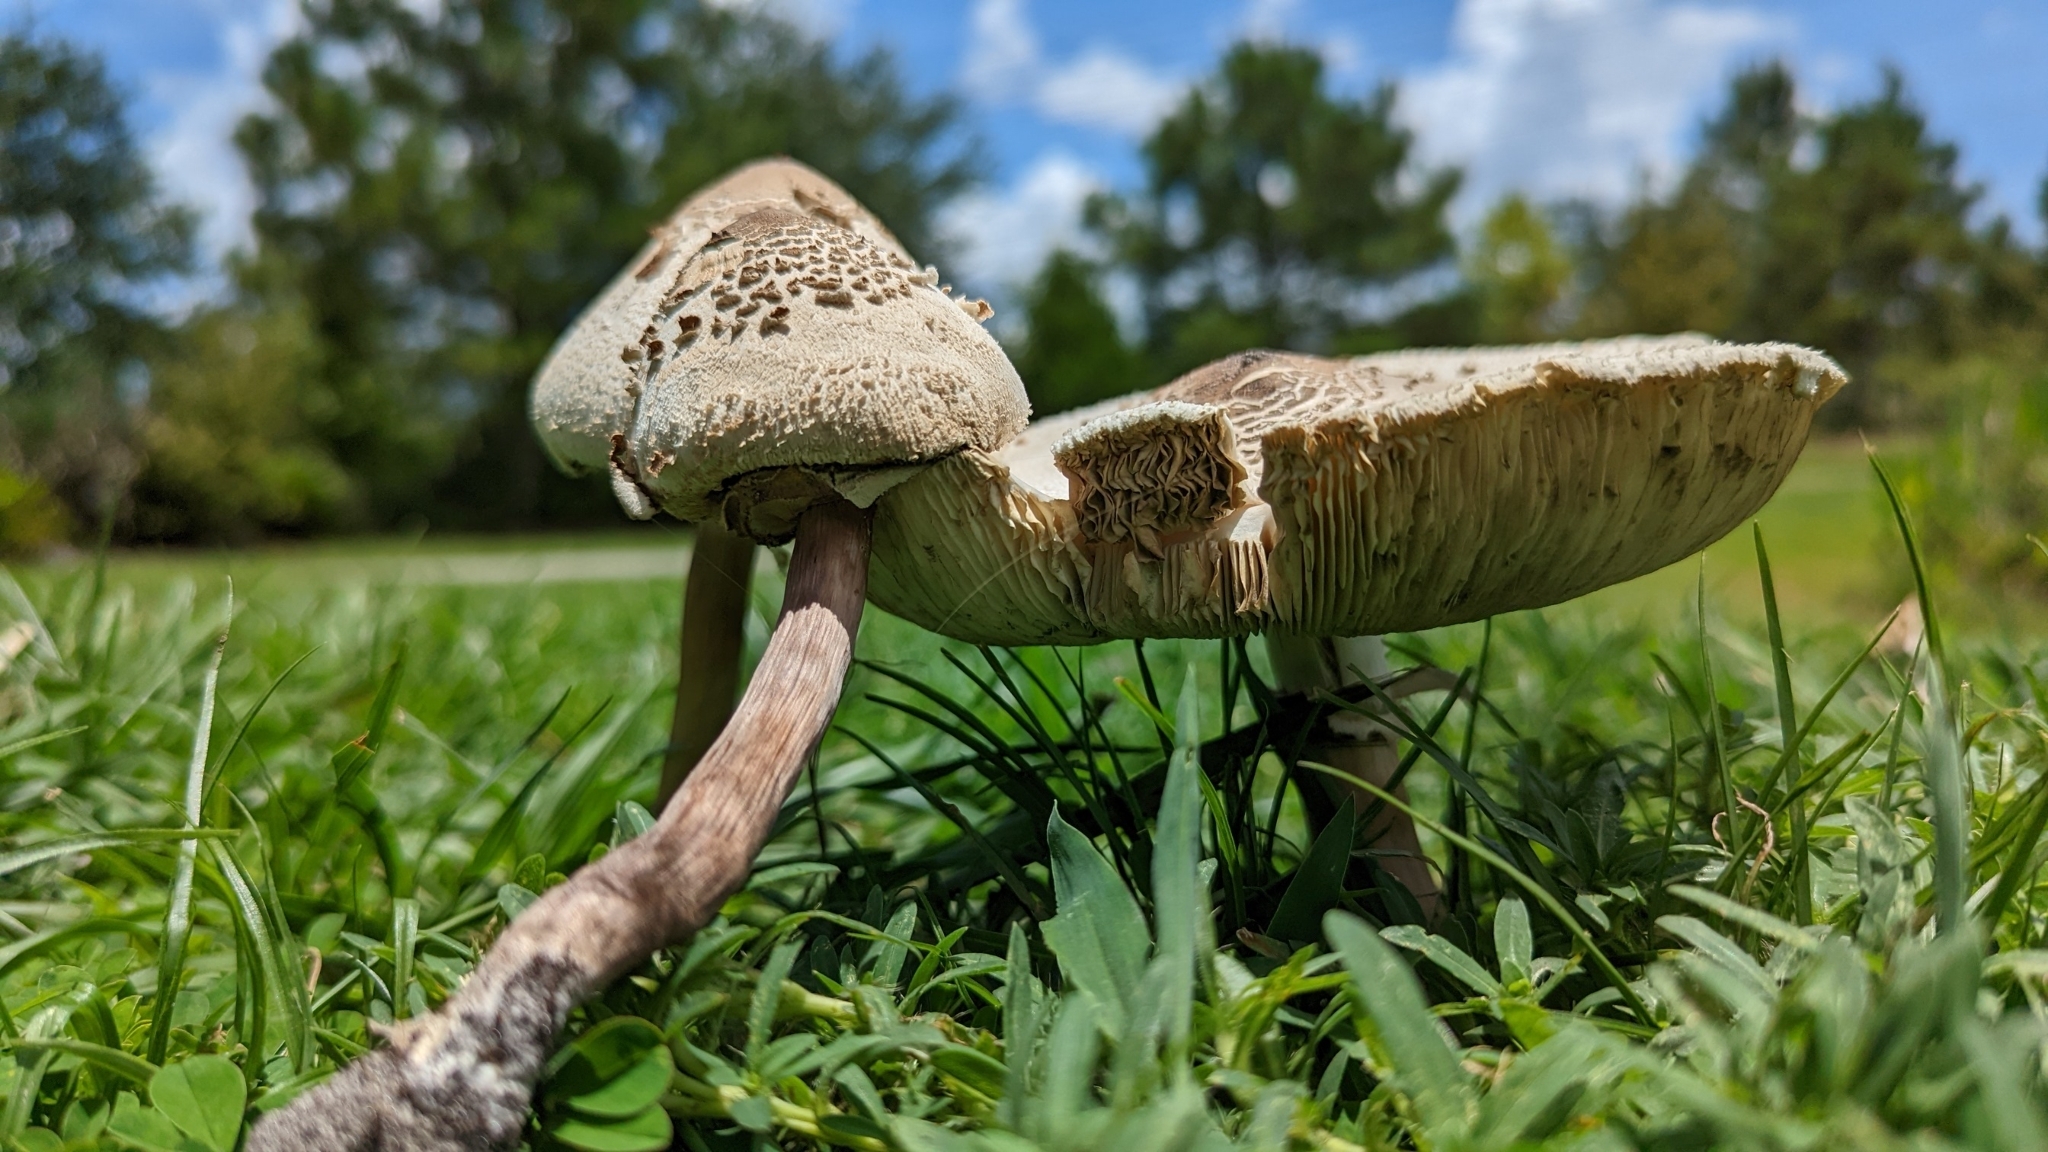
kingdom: Fungi
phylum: Basidiomycota
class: Agaricomycetes
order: Agaricales
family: Agaricaceae
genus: Chlorophyllum
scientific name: Chlorophyllum molybdites
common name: False parasol
